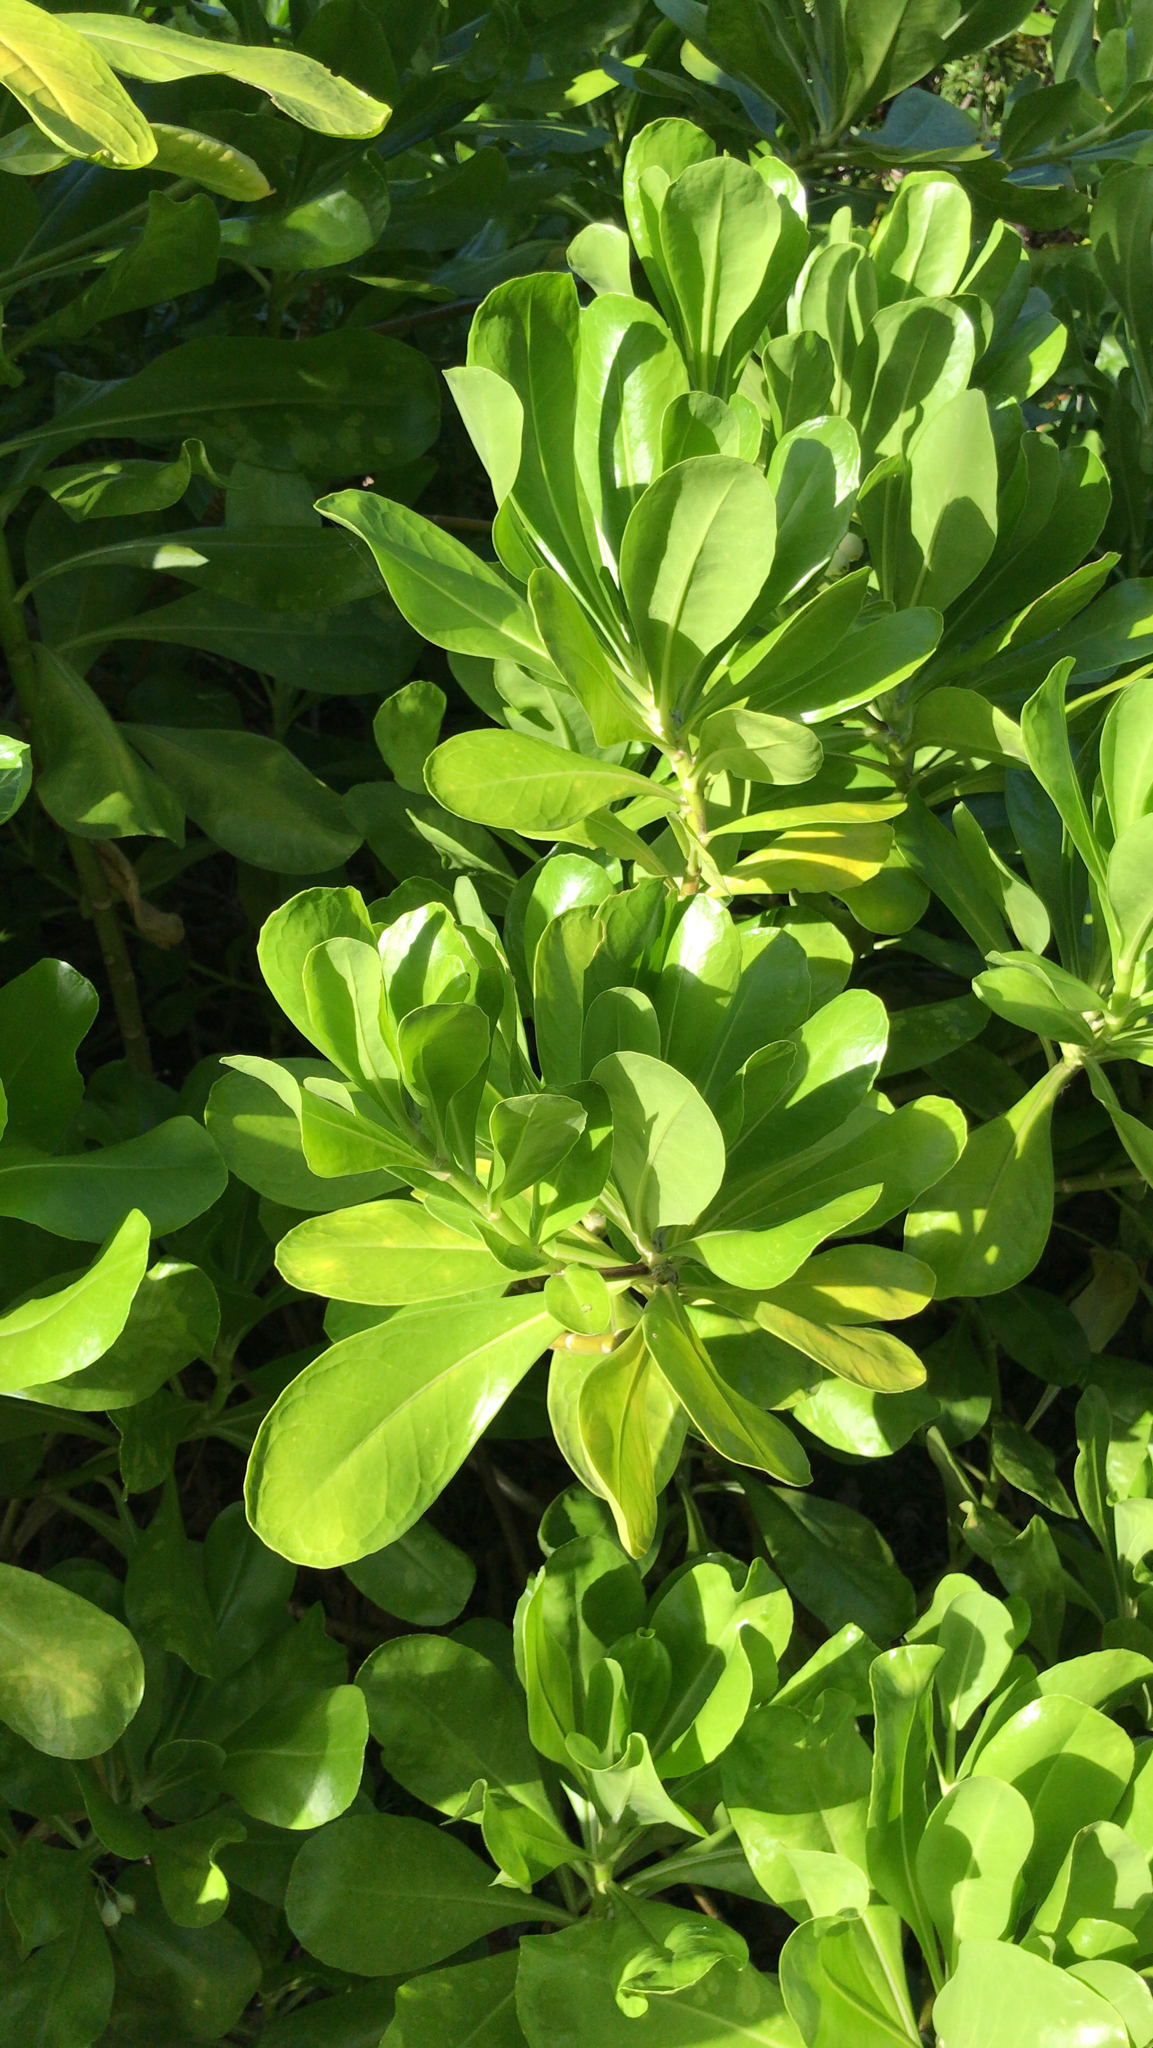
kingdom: Plantae
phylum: Tracheophyta
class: Magnoliopsida
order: Asterales
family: Goodeniaceae
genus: Scaevola
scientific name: Scaevola taccada
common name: Sea lettucetree
